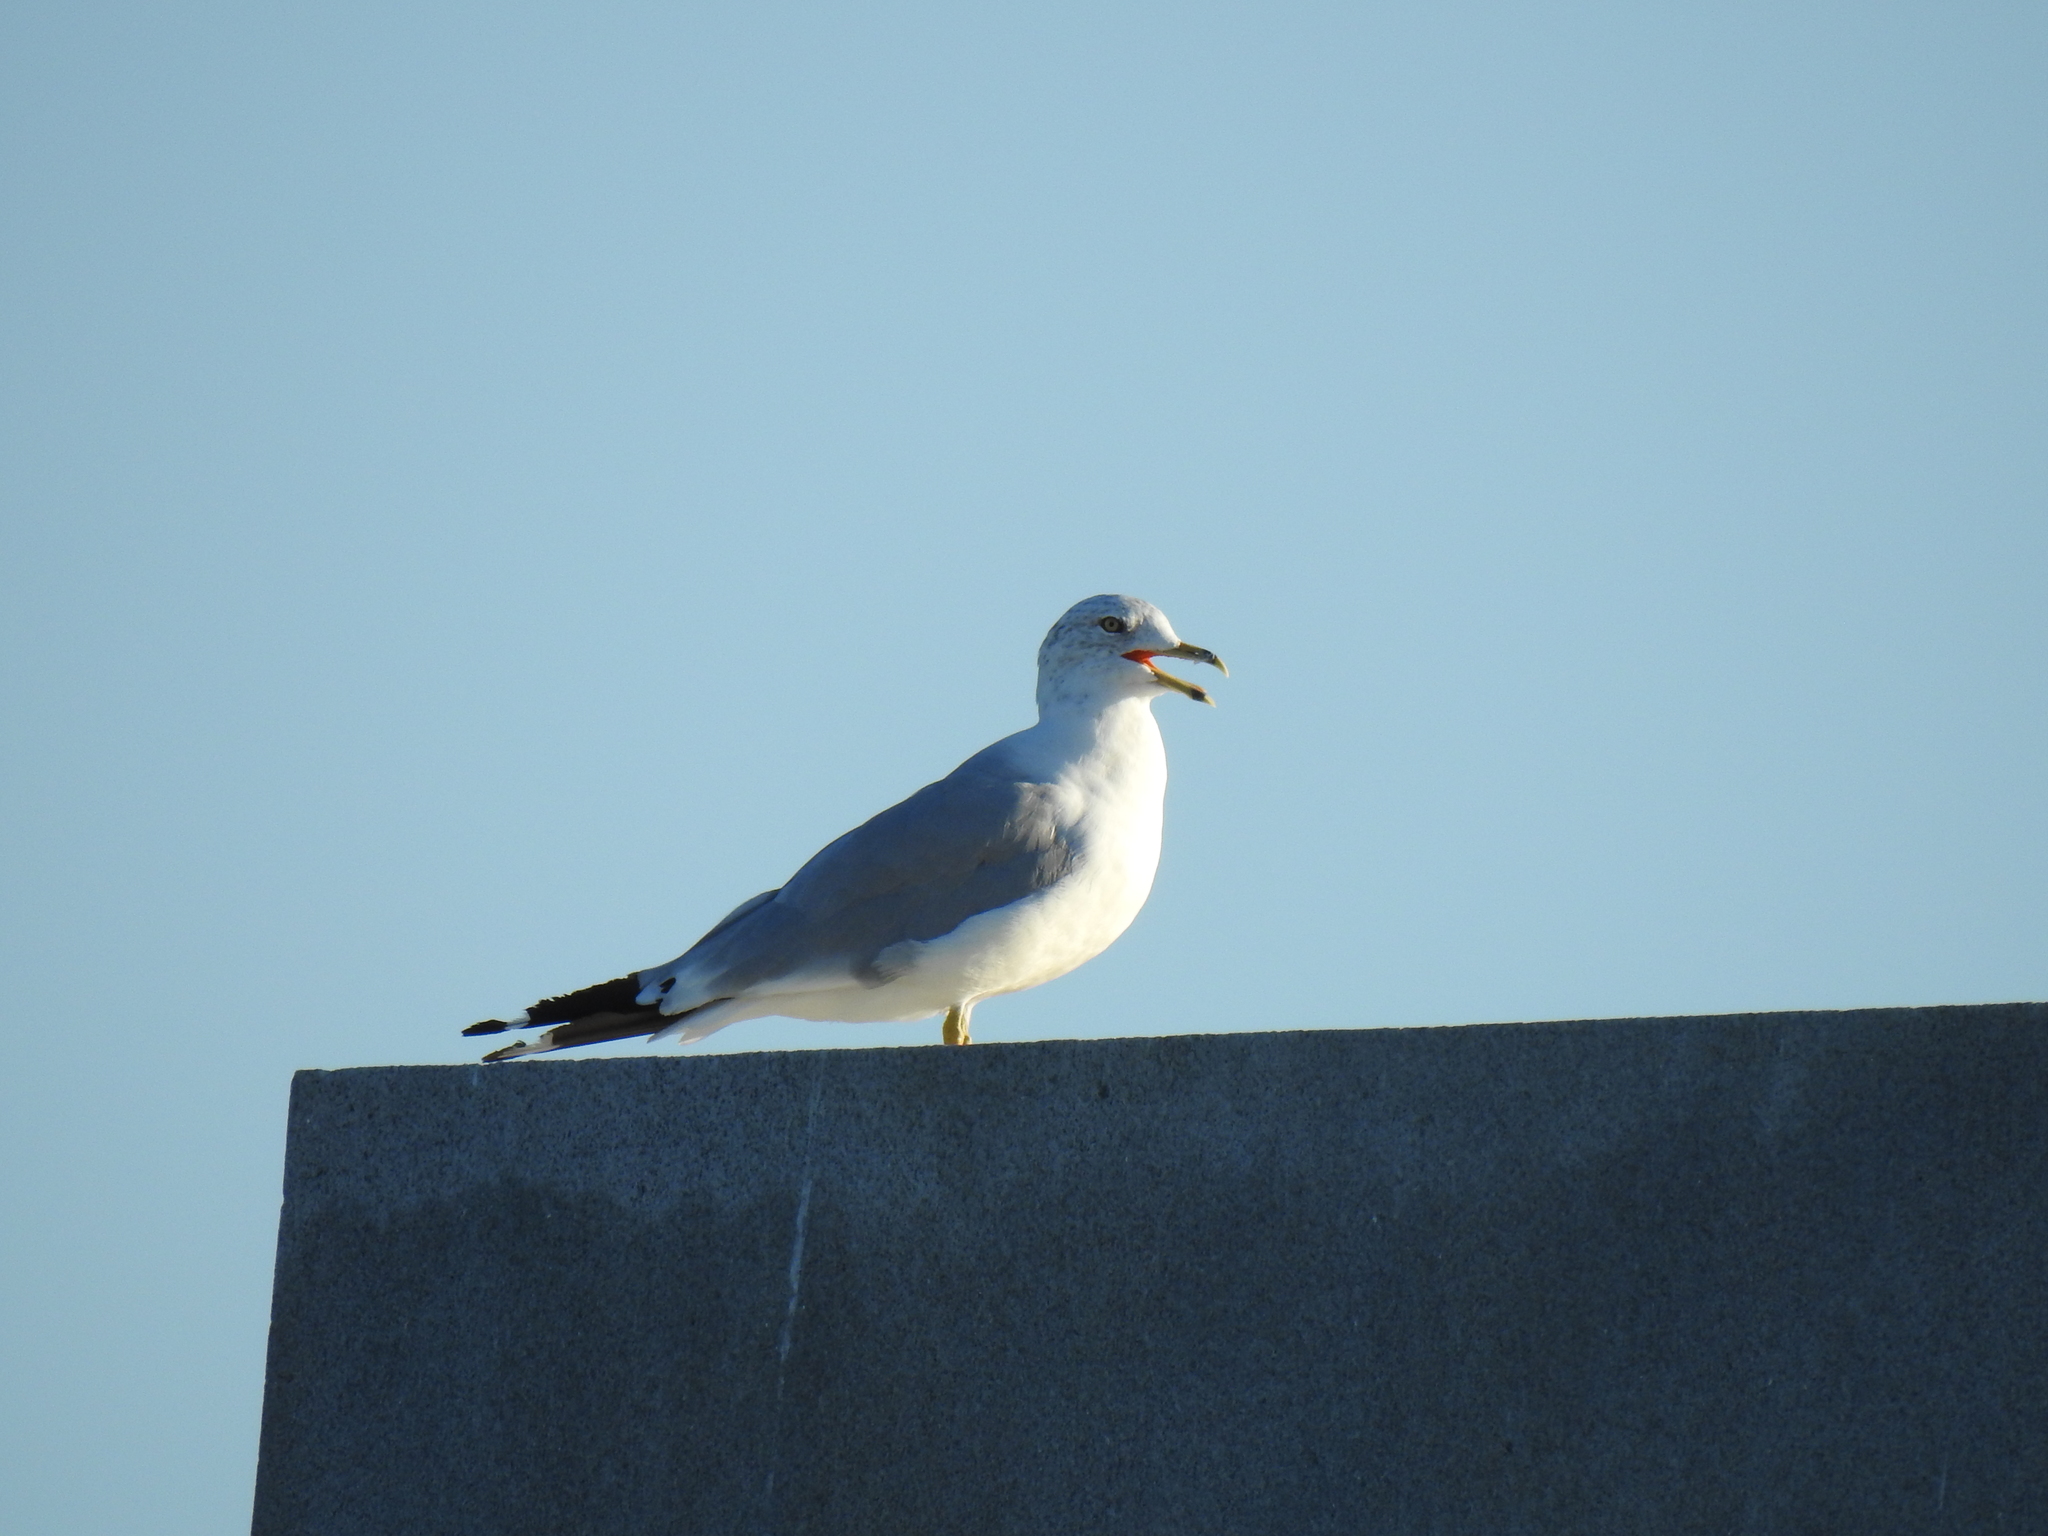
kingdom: Animalia
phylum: Chordata
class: Aves
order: Charadriiformes
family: Laridae
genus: Larus
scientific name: Larus delawarensis
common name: Ring-billed gull
